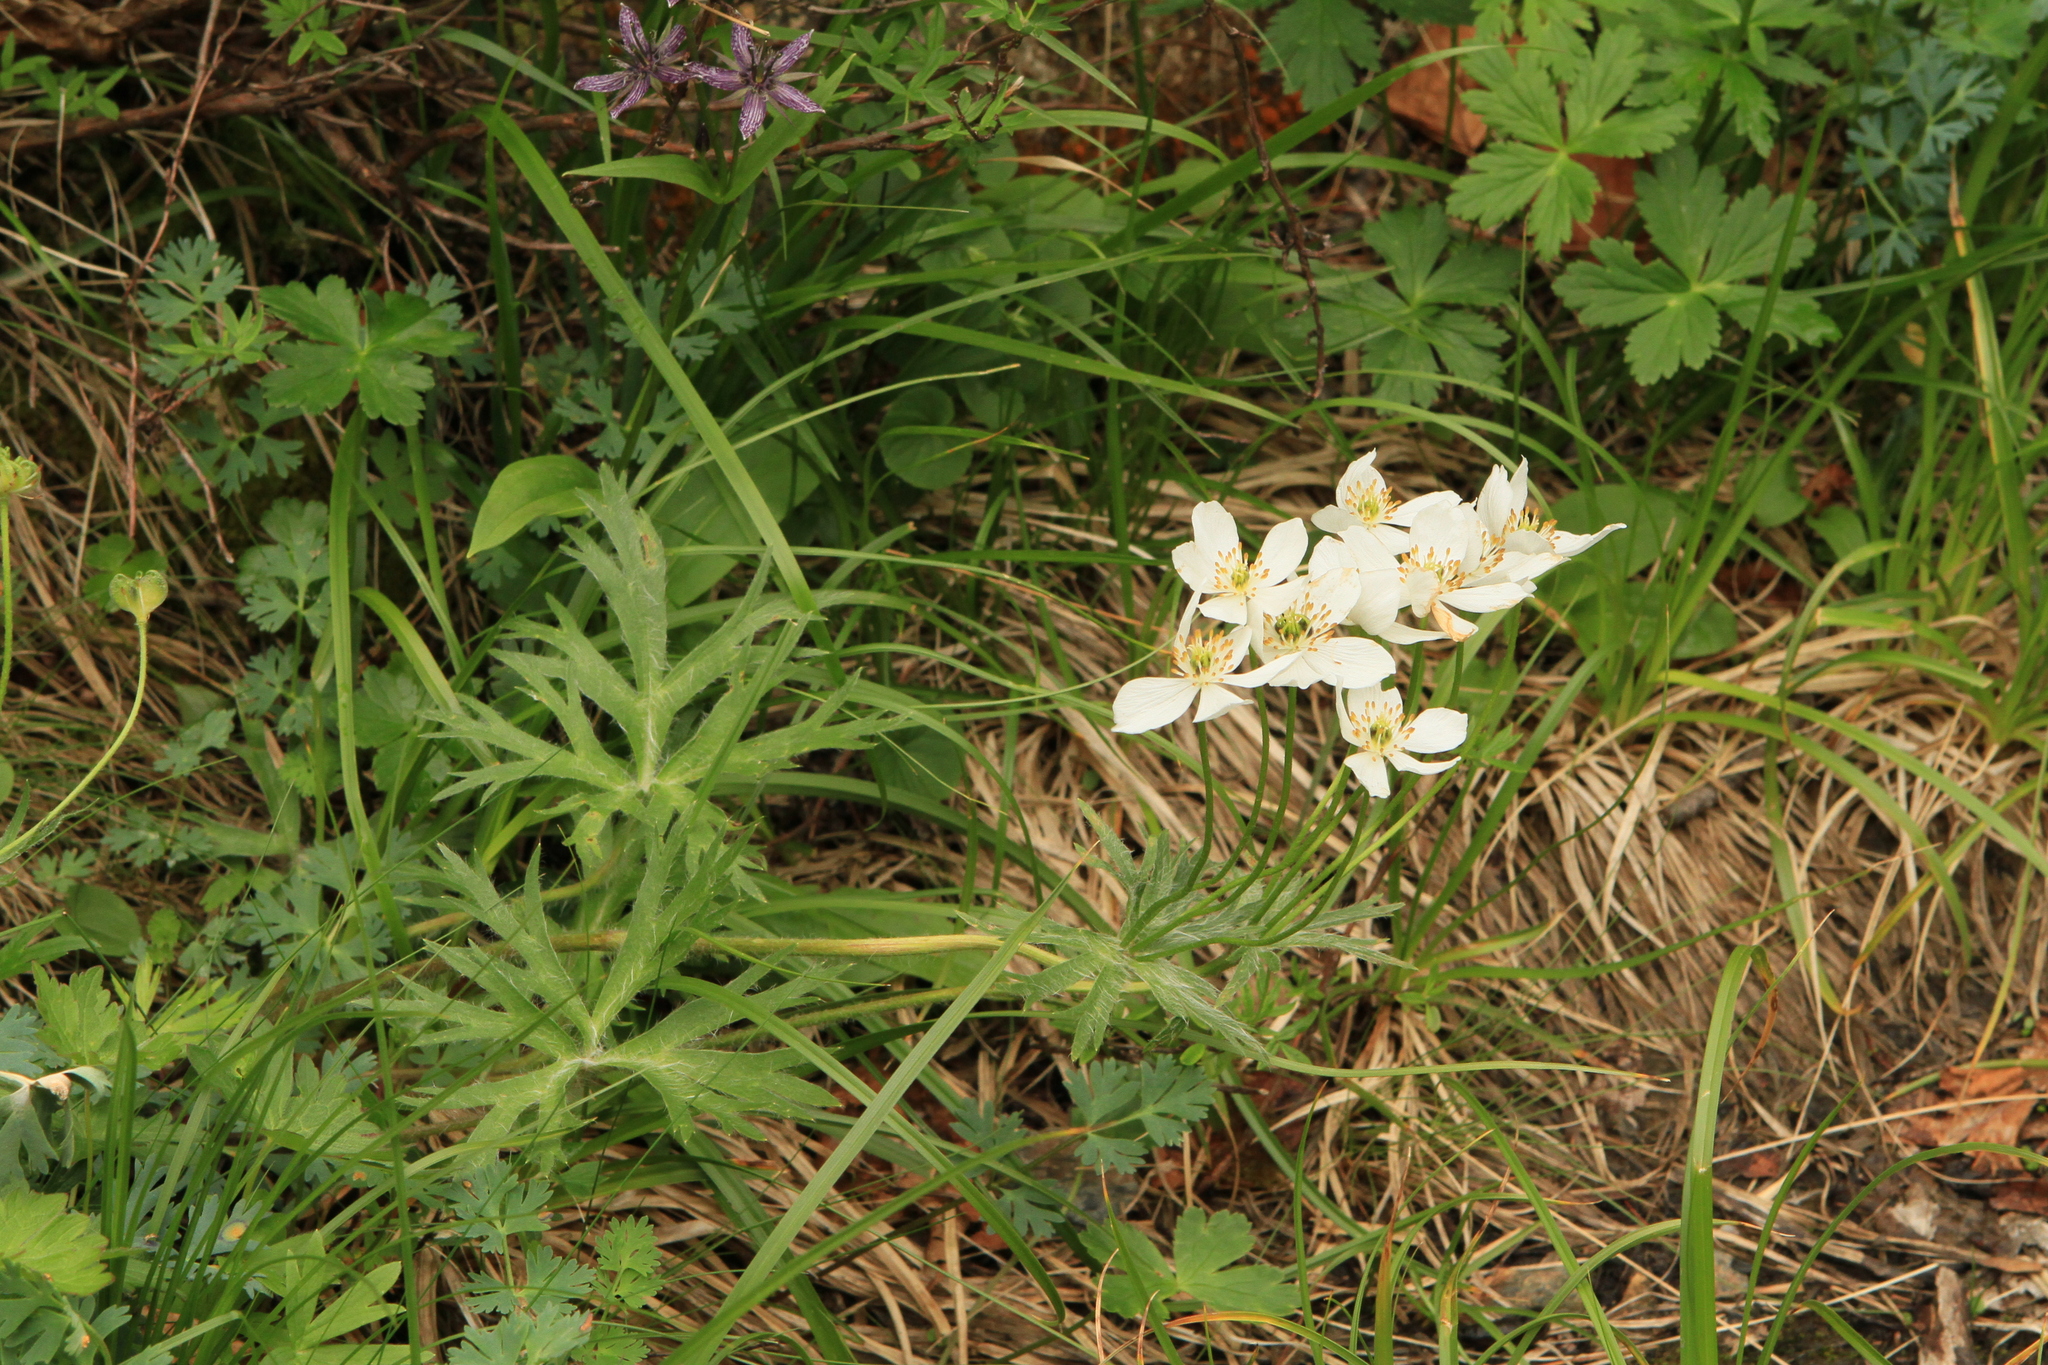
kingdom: Plantae
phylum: Tracheophyta
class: Magnoliopsida
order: Ranunculales
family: Ranunculaceae
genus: Anemonastrum
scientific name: Anemonastrum narcissiflorum
